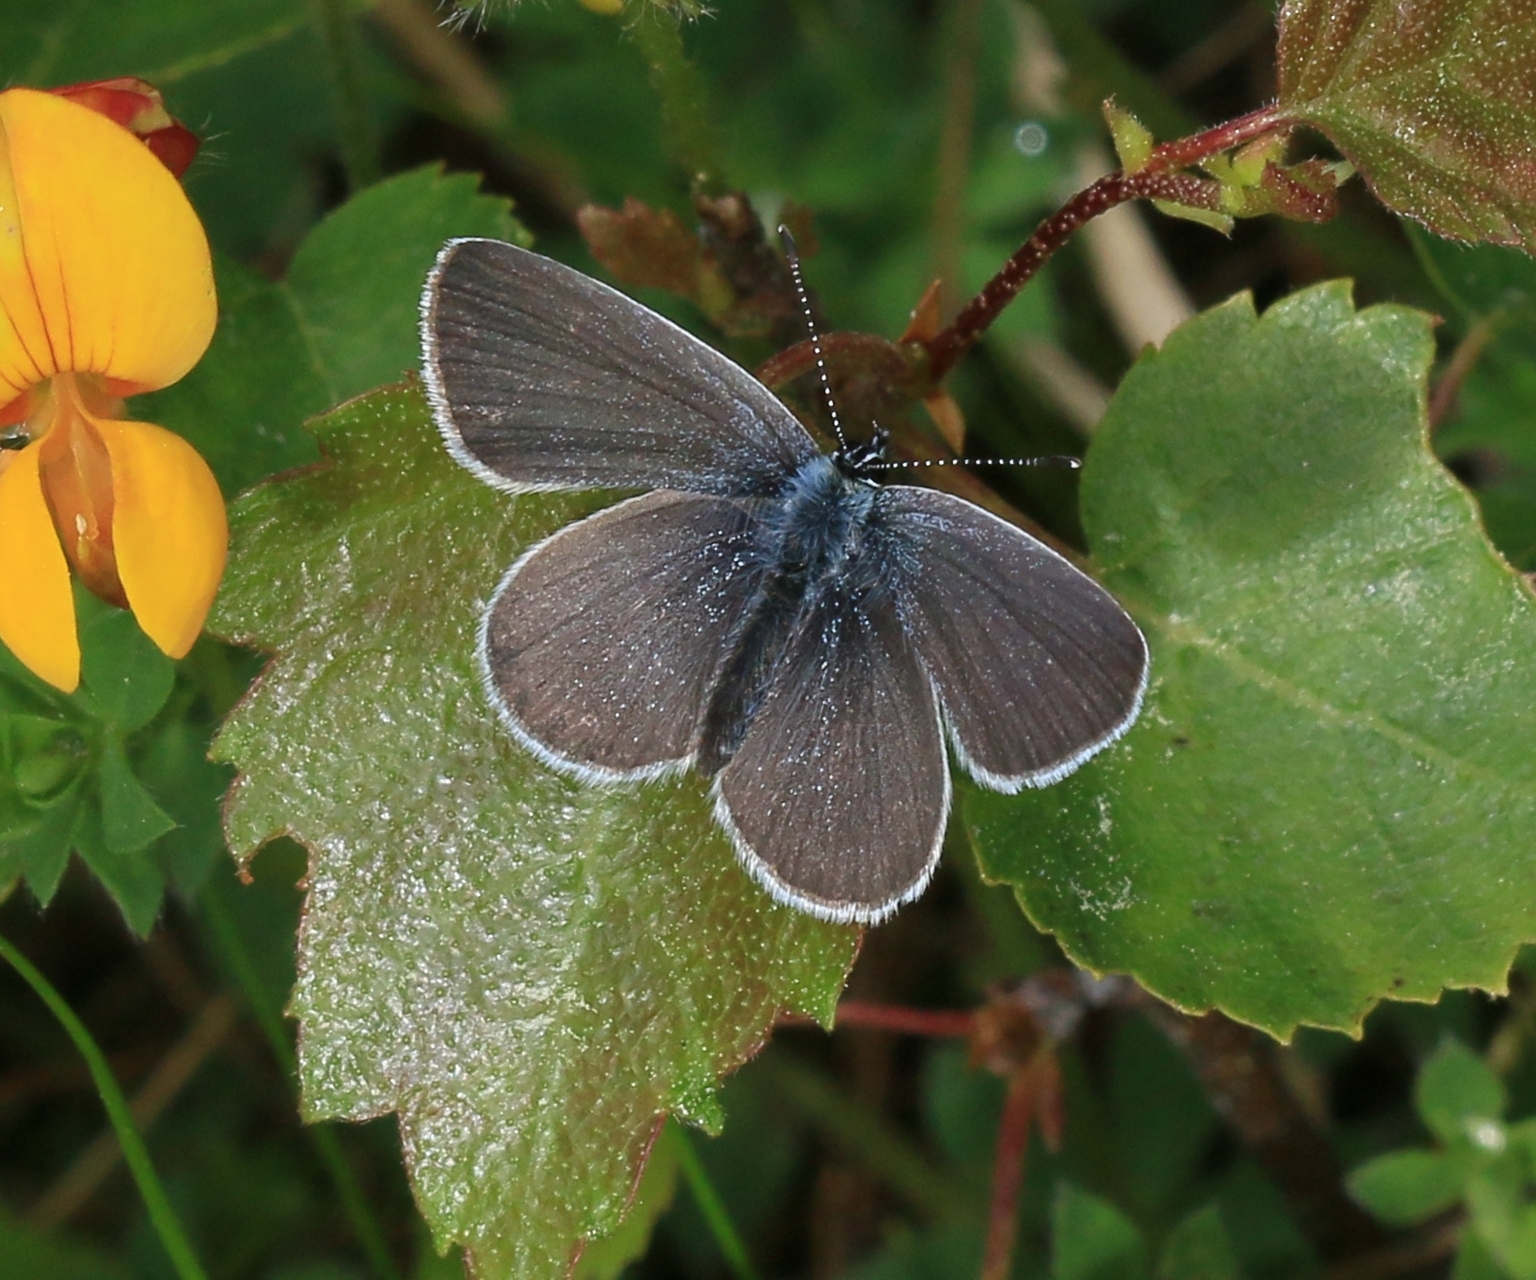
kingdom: Animalia
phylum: Arthropoda
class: Insecta
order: Lepidoptera
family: Lycaenidae
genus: Cupido
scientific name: Cupido minimus
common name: Small blue
